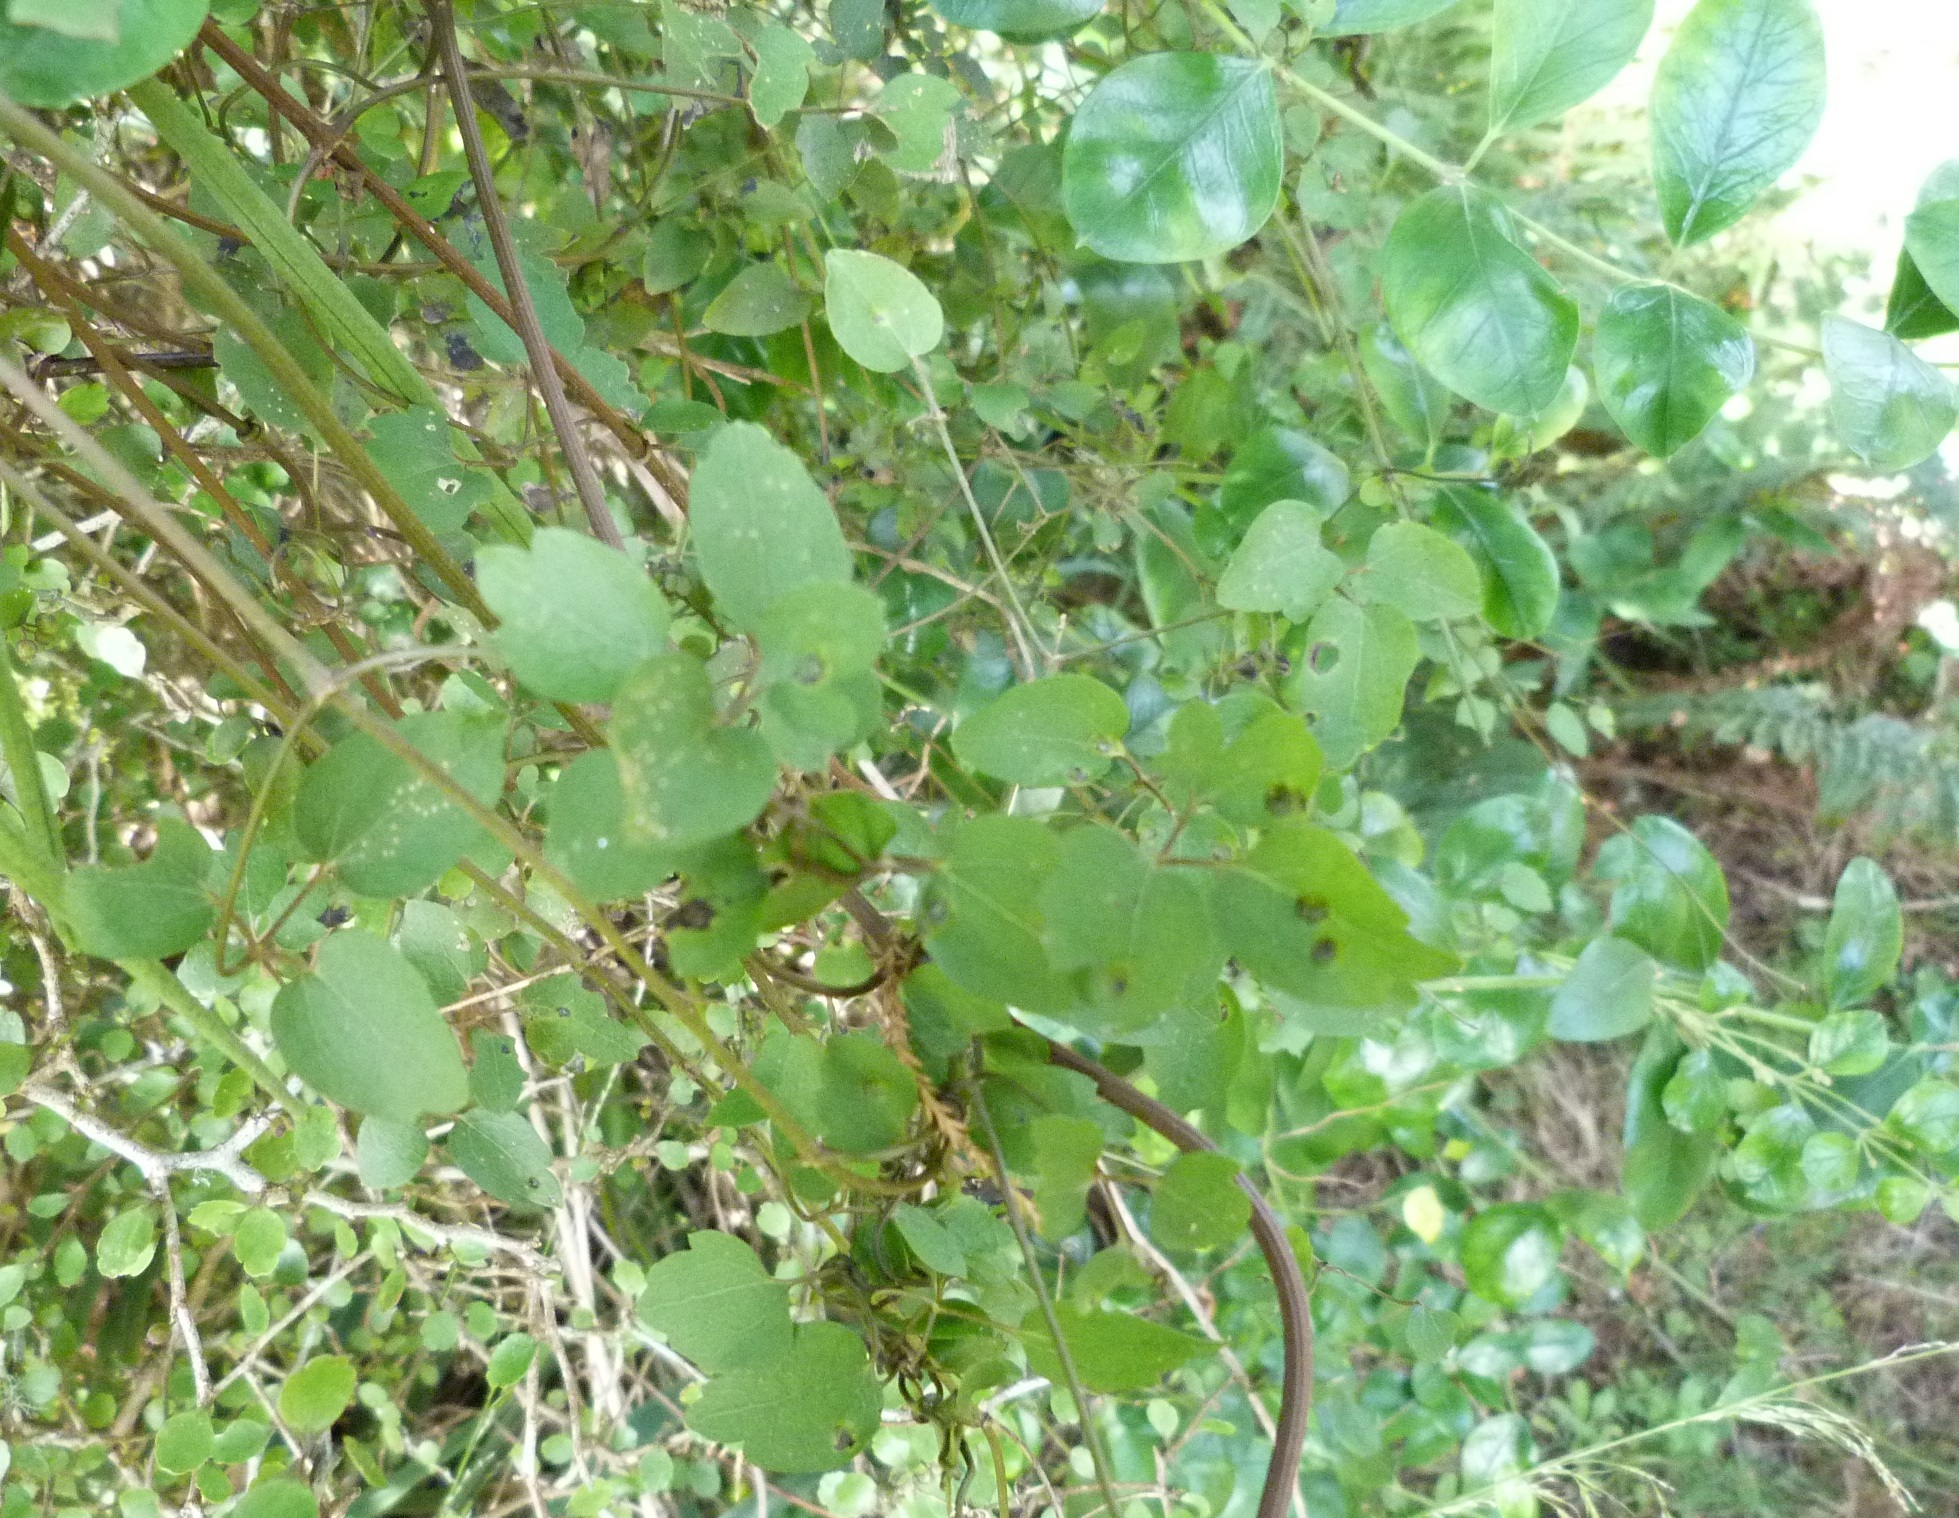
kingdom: Plantae
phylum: Tracheophyta
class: Magnoliopsida
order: Ranunculales
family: Ranunculaceae
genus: Clematis
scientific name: Clematis forsteri
